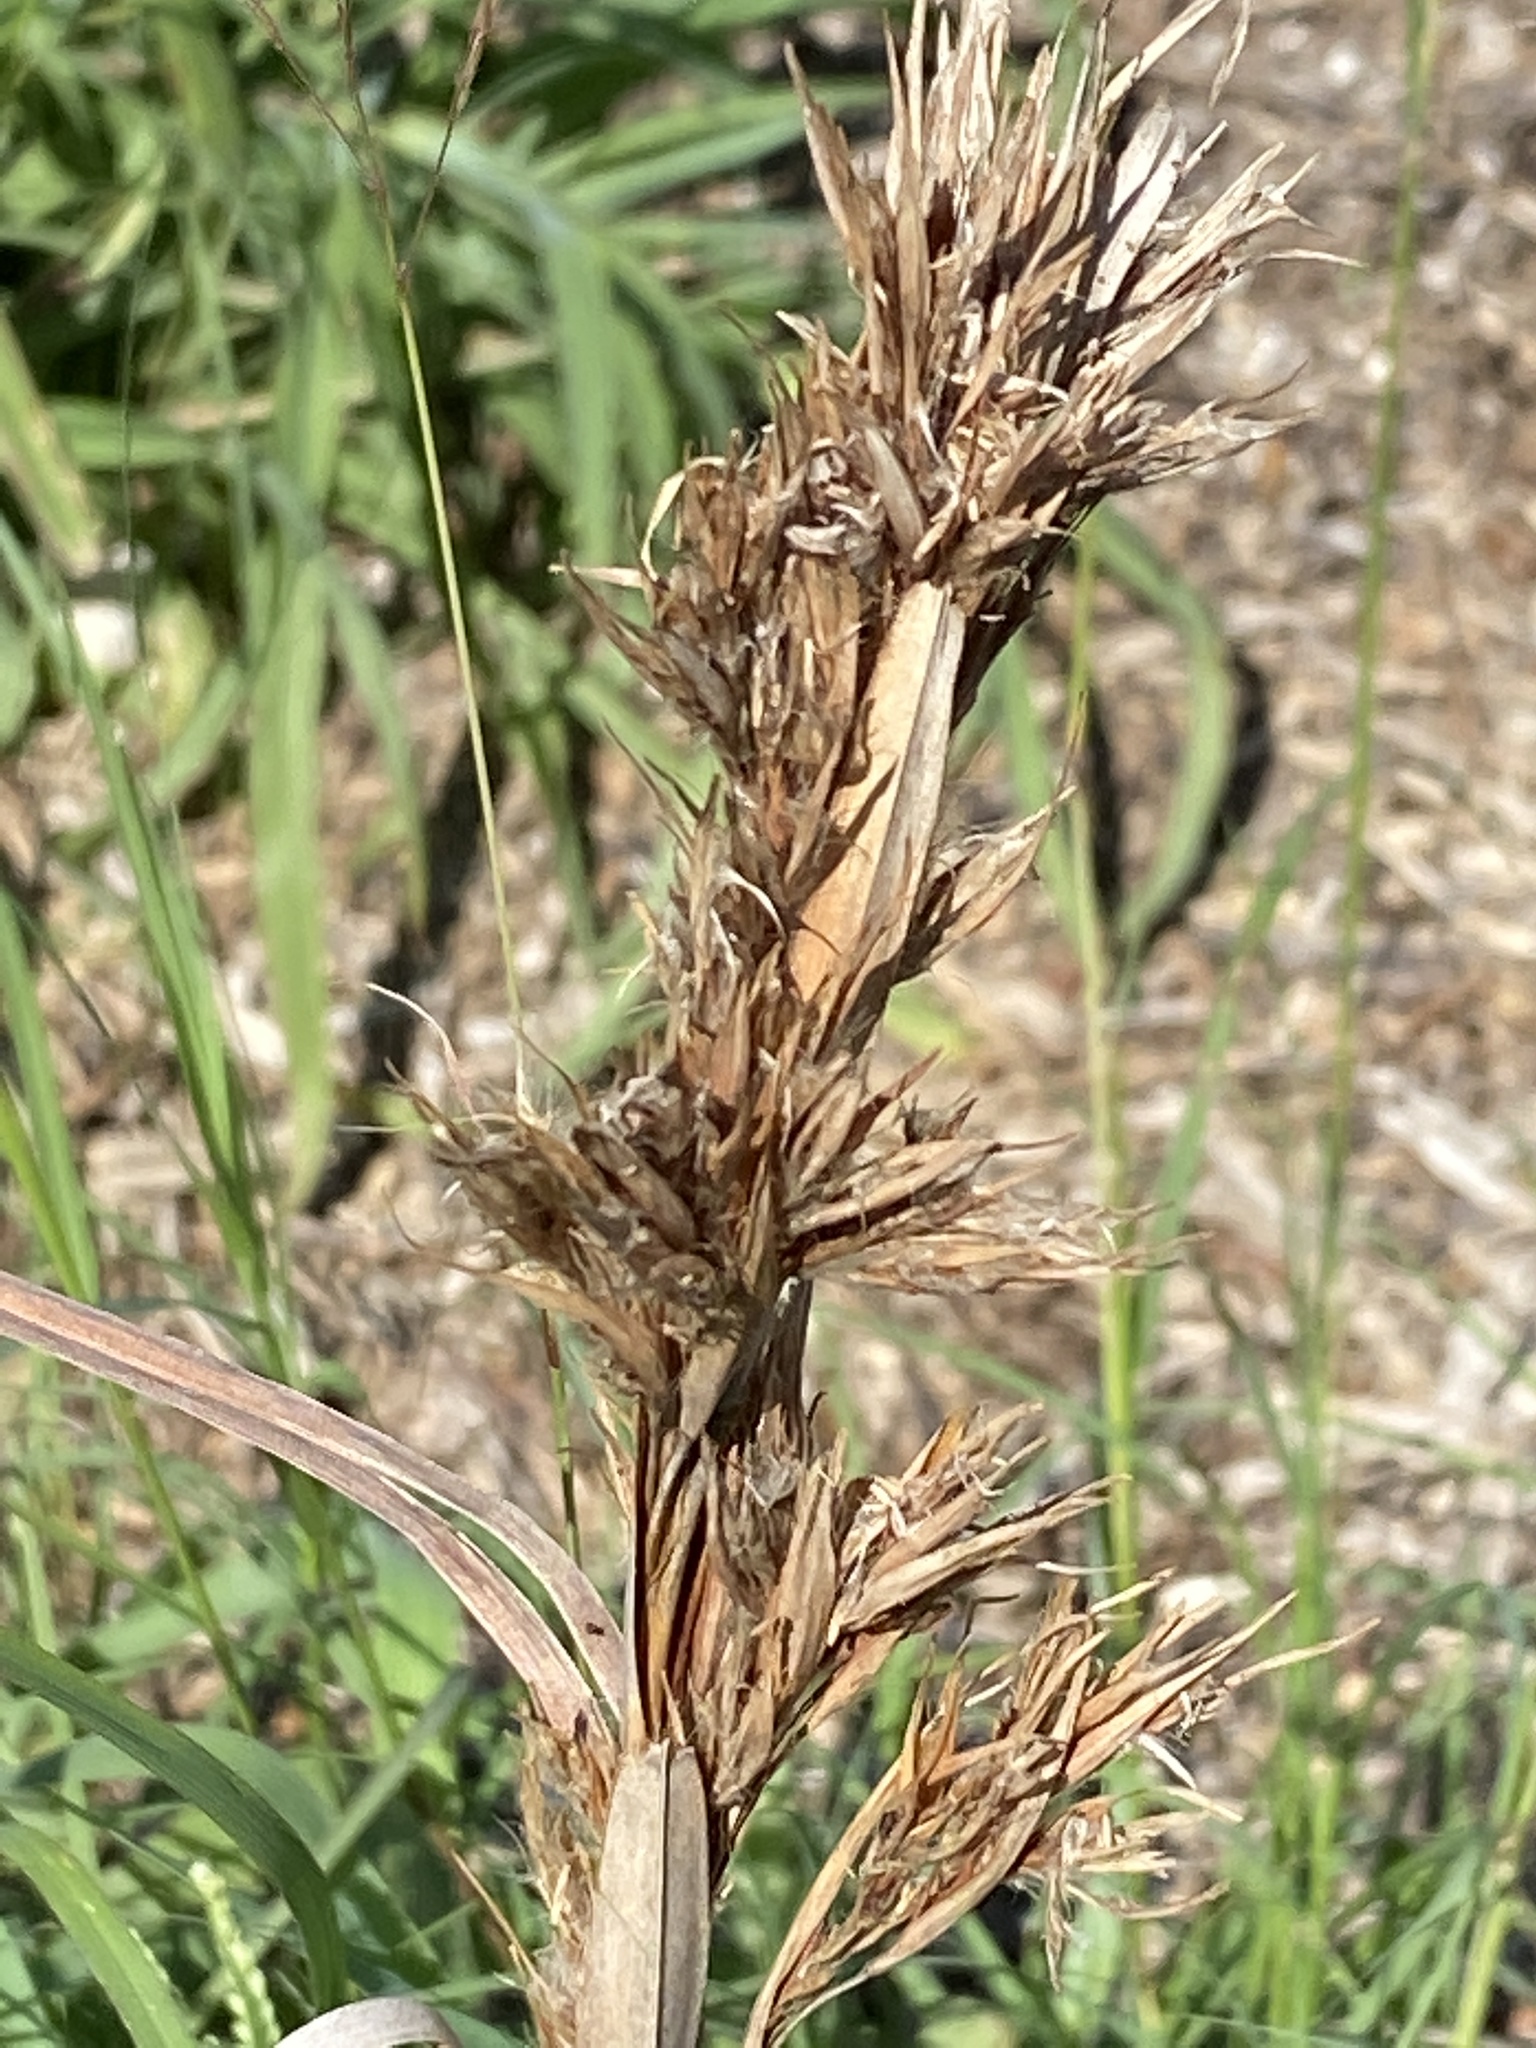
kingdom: Plantae
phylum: Tracheophyta
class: Liliopsida
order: Poales
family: Poaceae
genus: Andropogon
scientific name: Andropogon tenuispatheus
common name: Bushy bluestem
